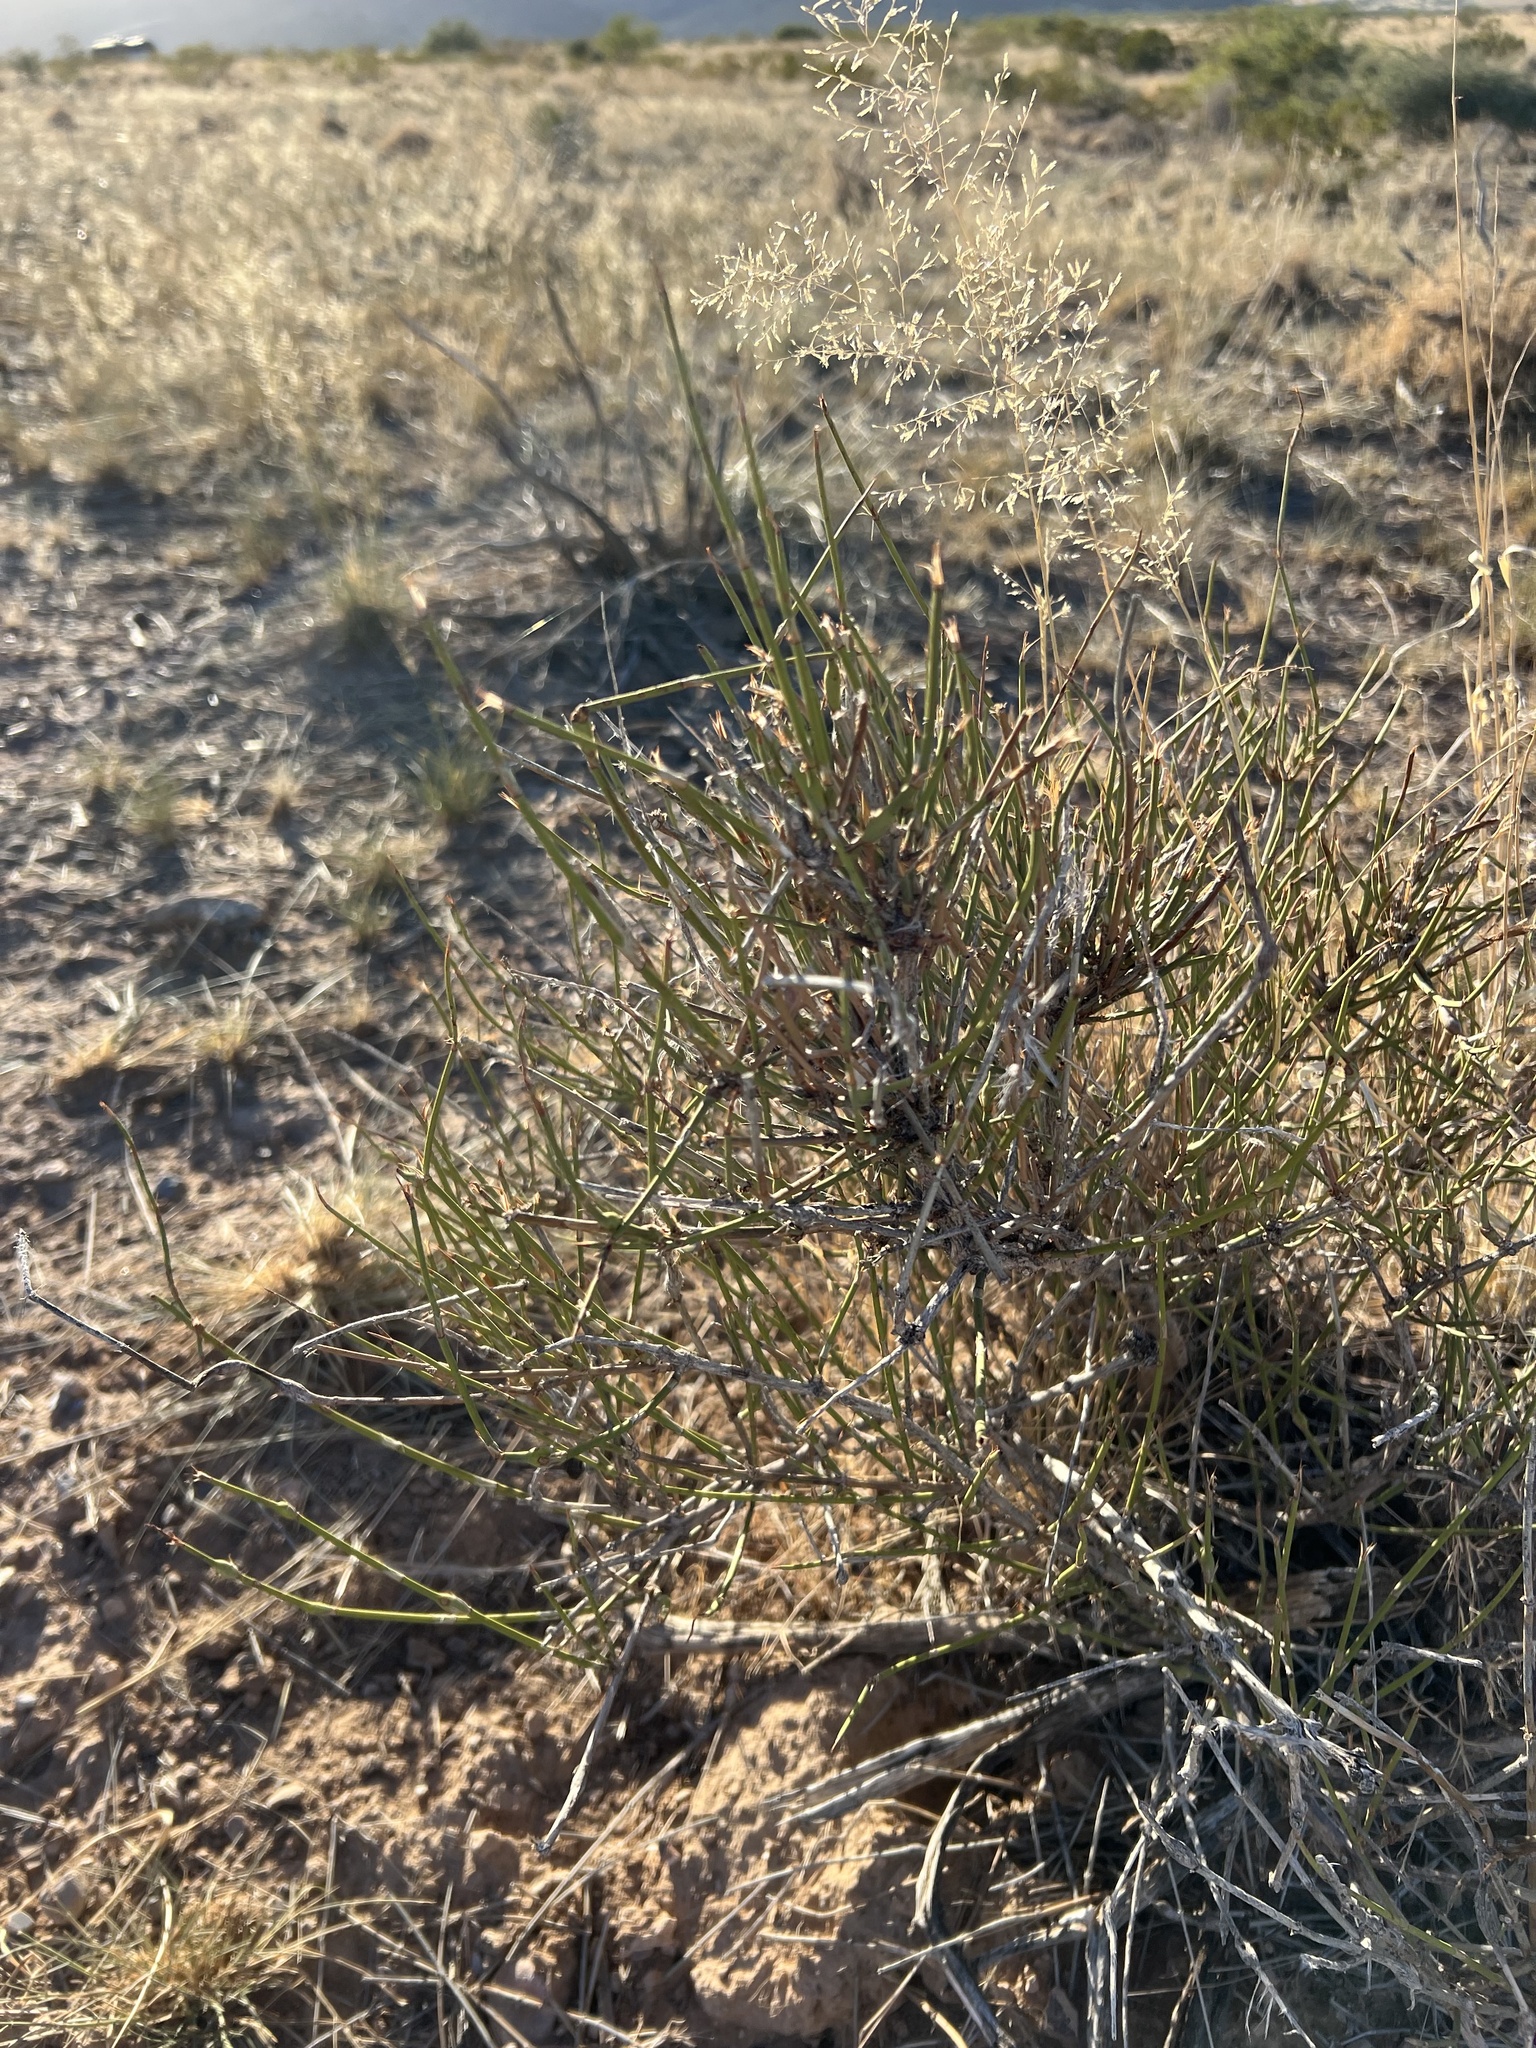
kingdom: Plantae
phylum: Tracheophyta
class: Gnetopsida
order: Ephedrales
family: Ephedraceae
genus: Ephedra
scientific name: Ephedra trifurca
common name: Mexican-tea
